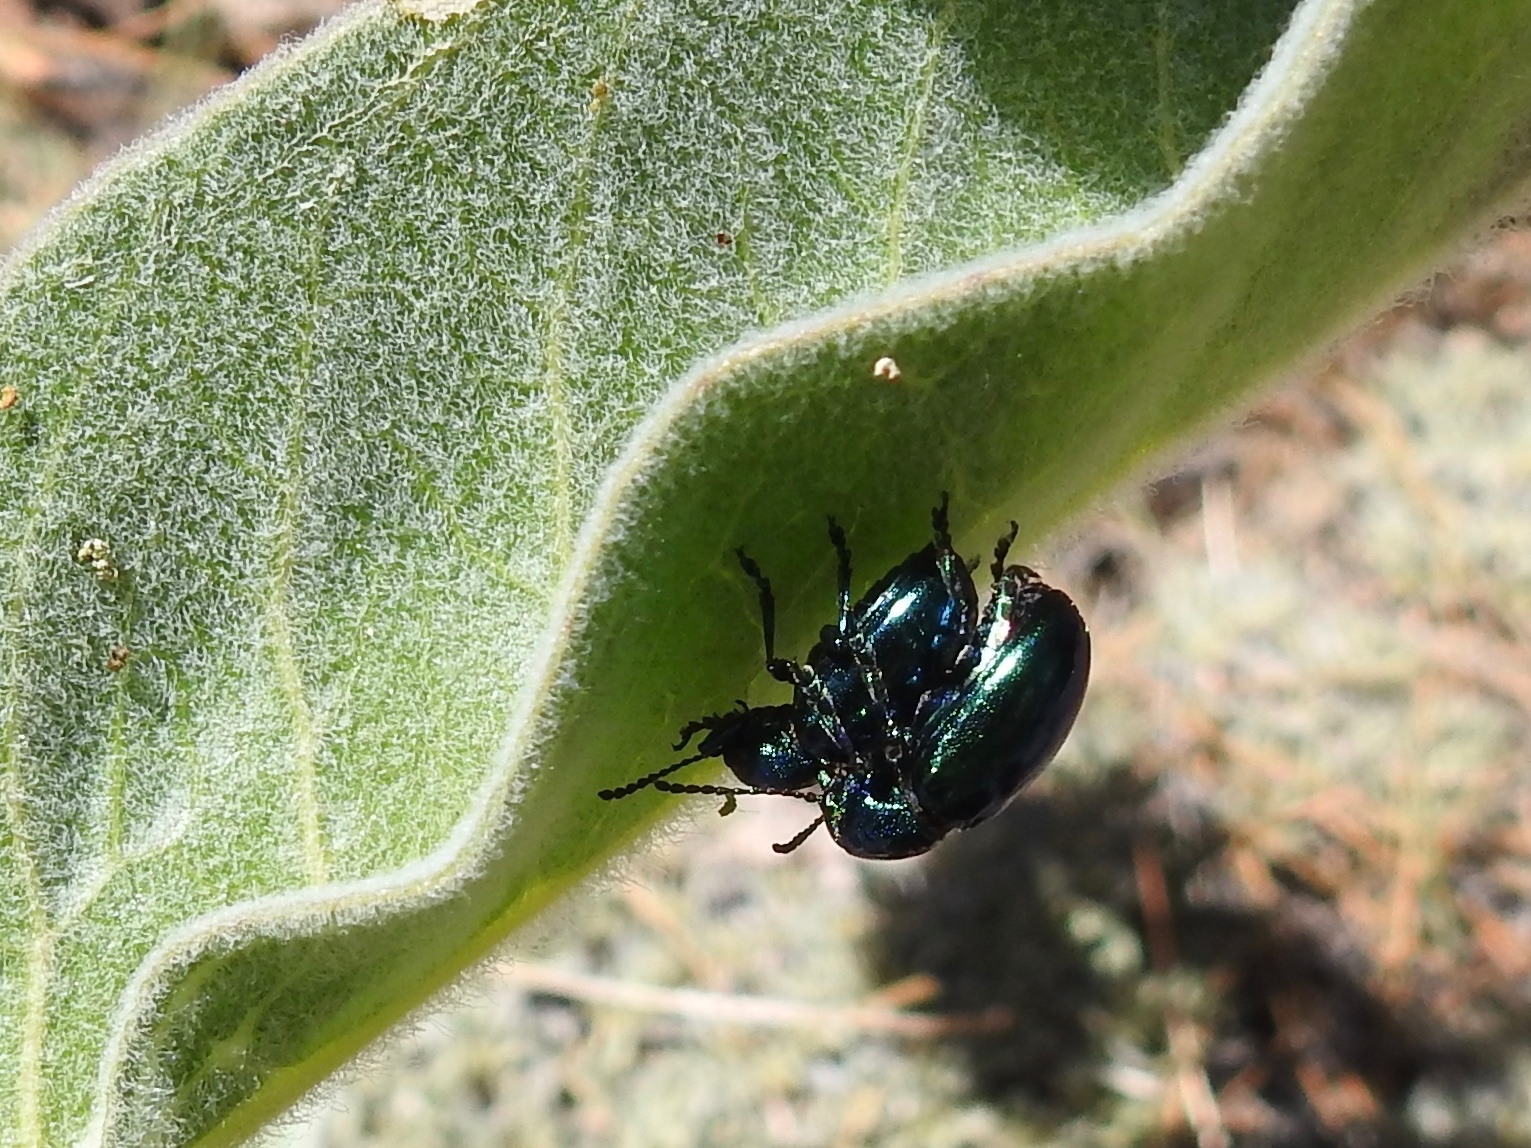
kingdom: Animalia
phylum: Arthropoda
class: Insecta
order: Coleoptera
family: Chrysomelidae
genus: Chrysochus
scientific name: Chrysochus cobaltinus
